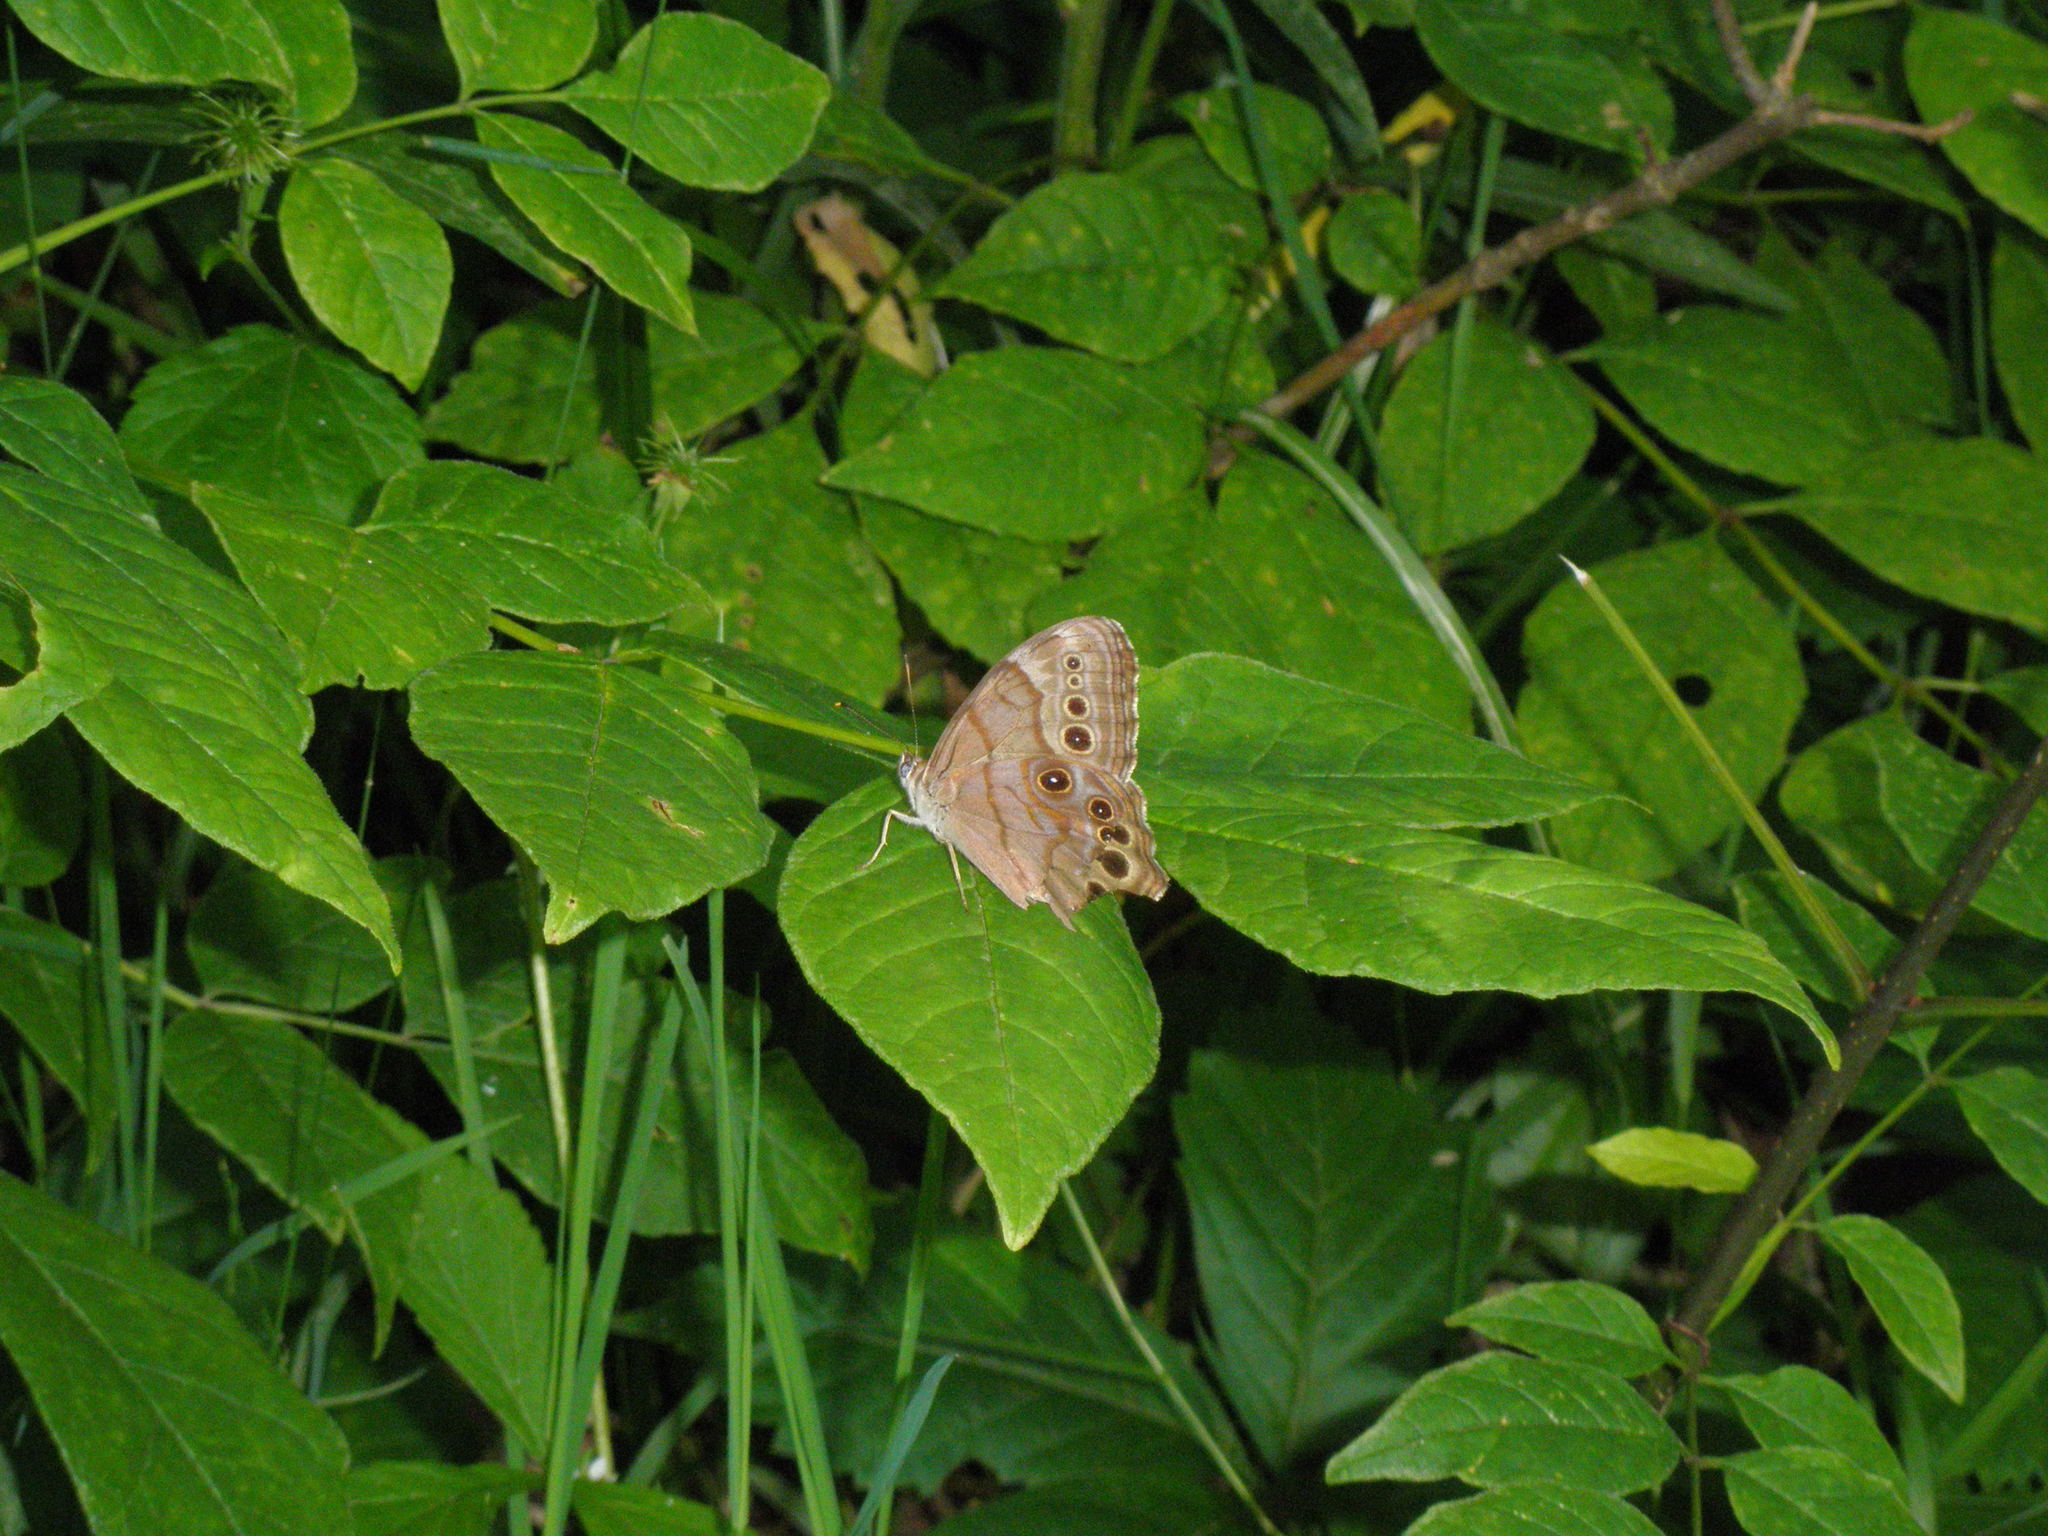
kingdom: Animalia
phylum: Arthropoda
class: Insecta
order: Lepidoptera
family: Nymphalidae
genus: Lethe
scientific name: Lethe anthedon
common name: Northern pearly-eye
